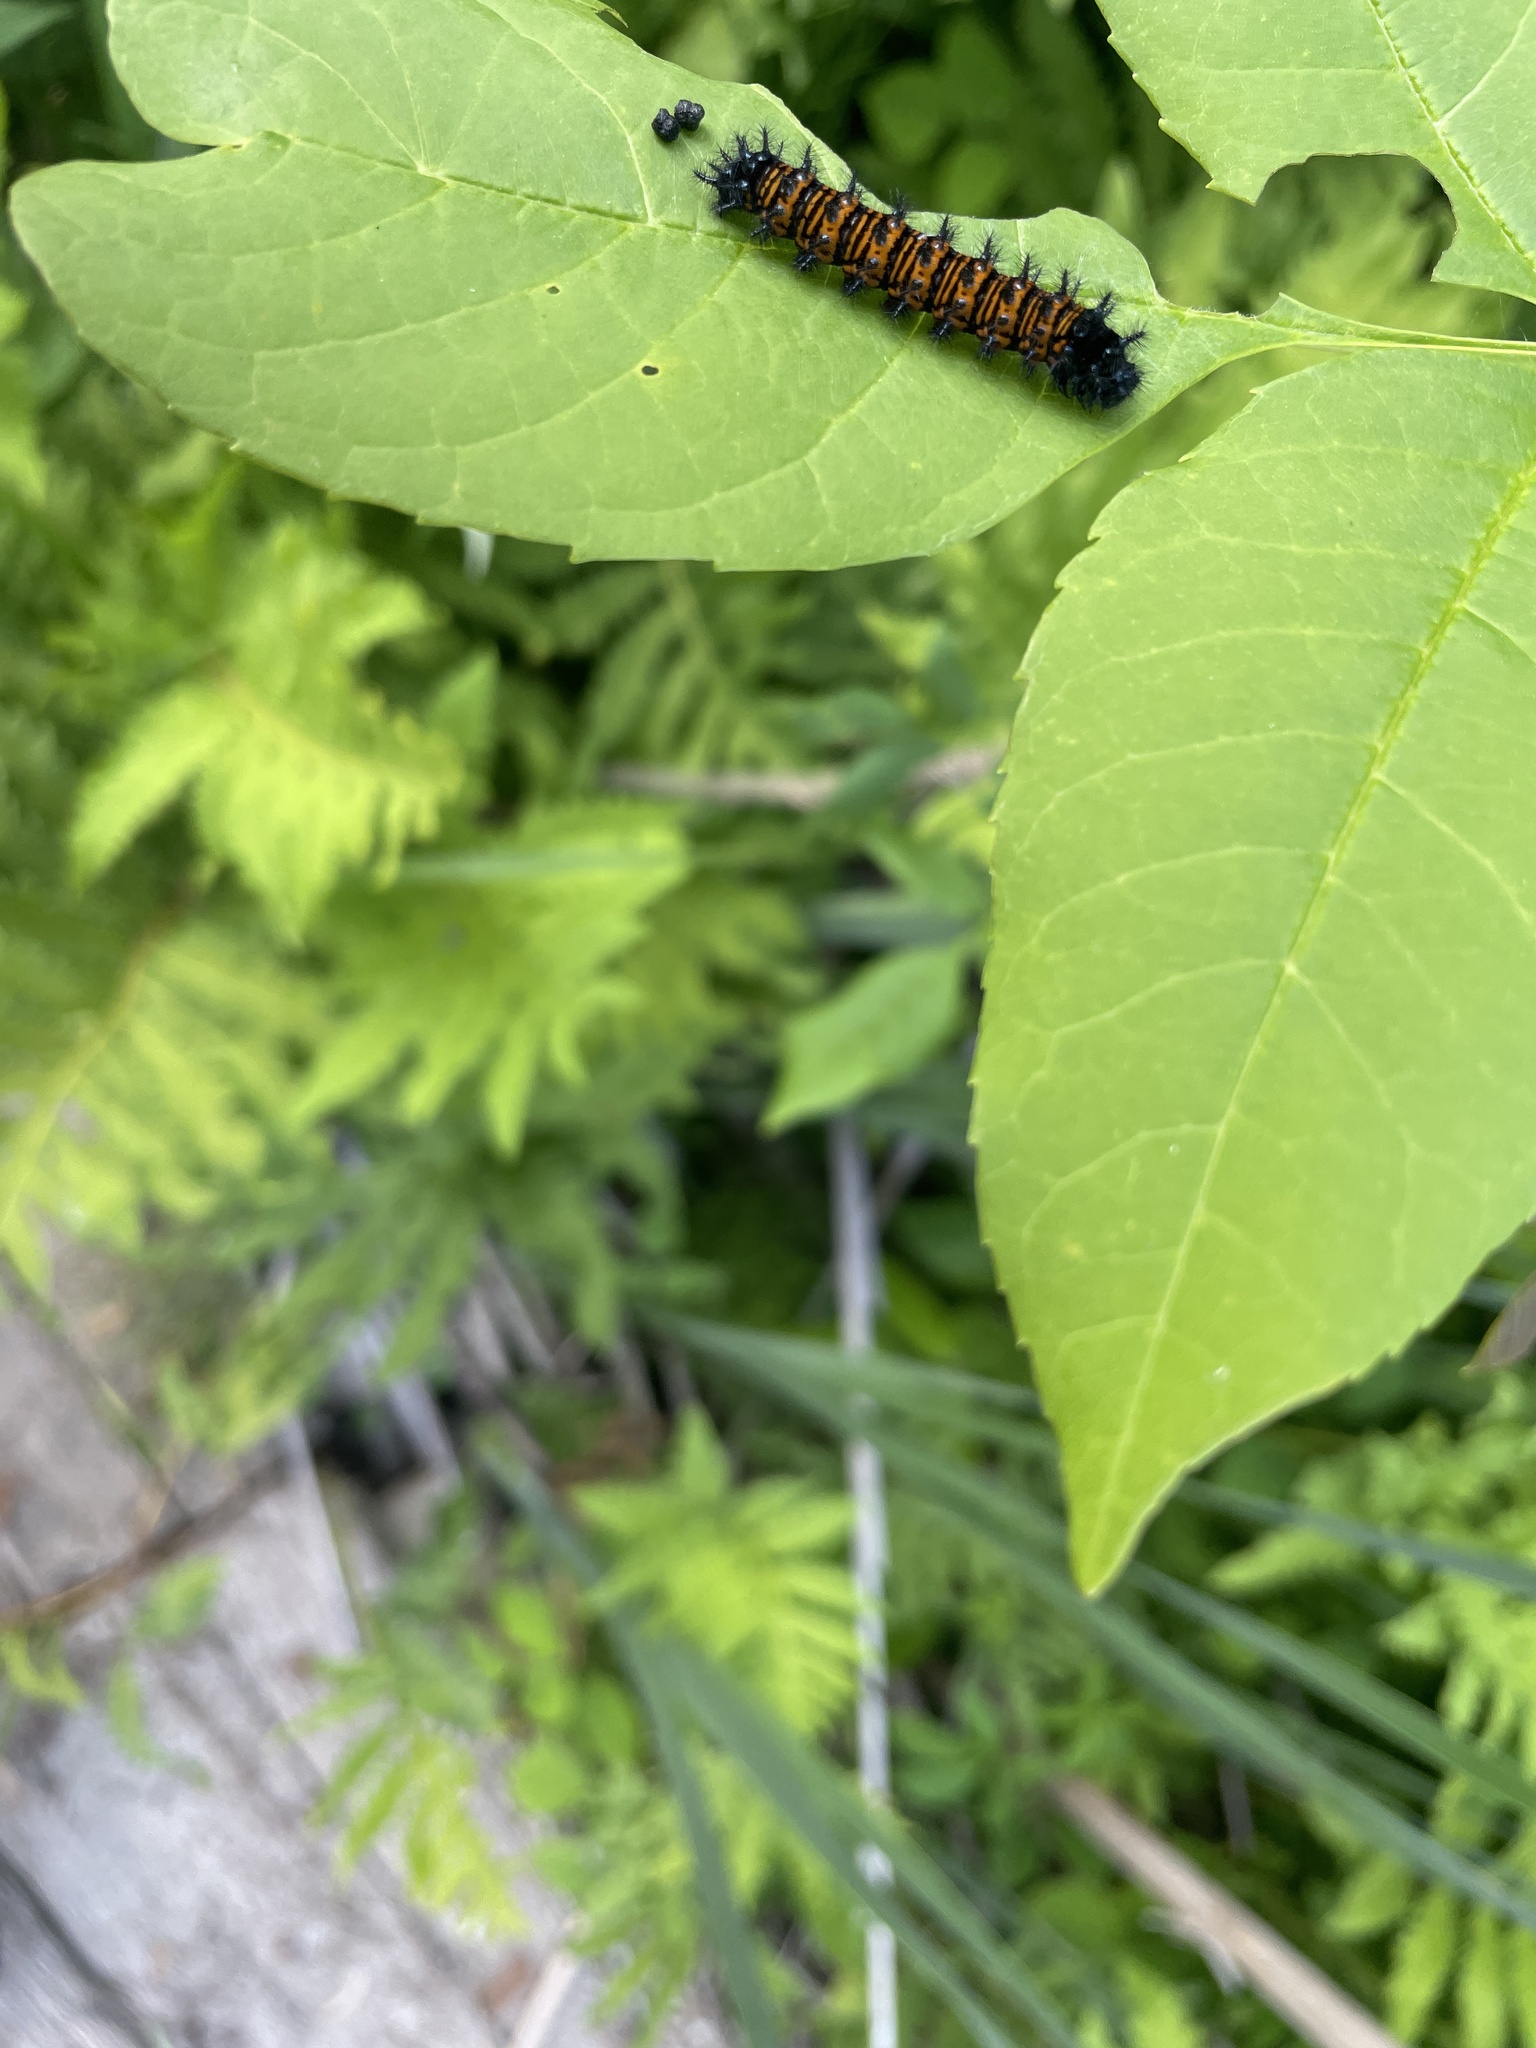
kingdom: Animalia
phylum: Arthropoda
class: Insecta
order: Lepidoptera
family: Nymphalidae
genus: Euphydryas
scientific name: Euphydryas phaeton
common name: Baltimore checkerspot
